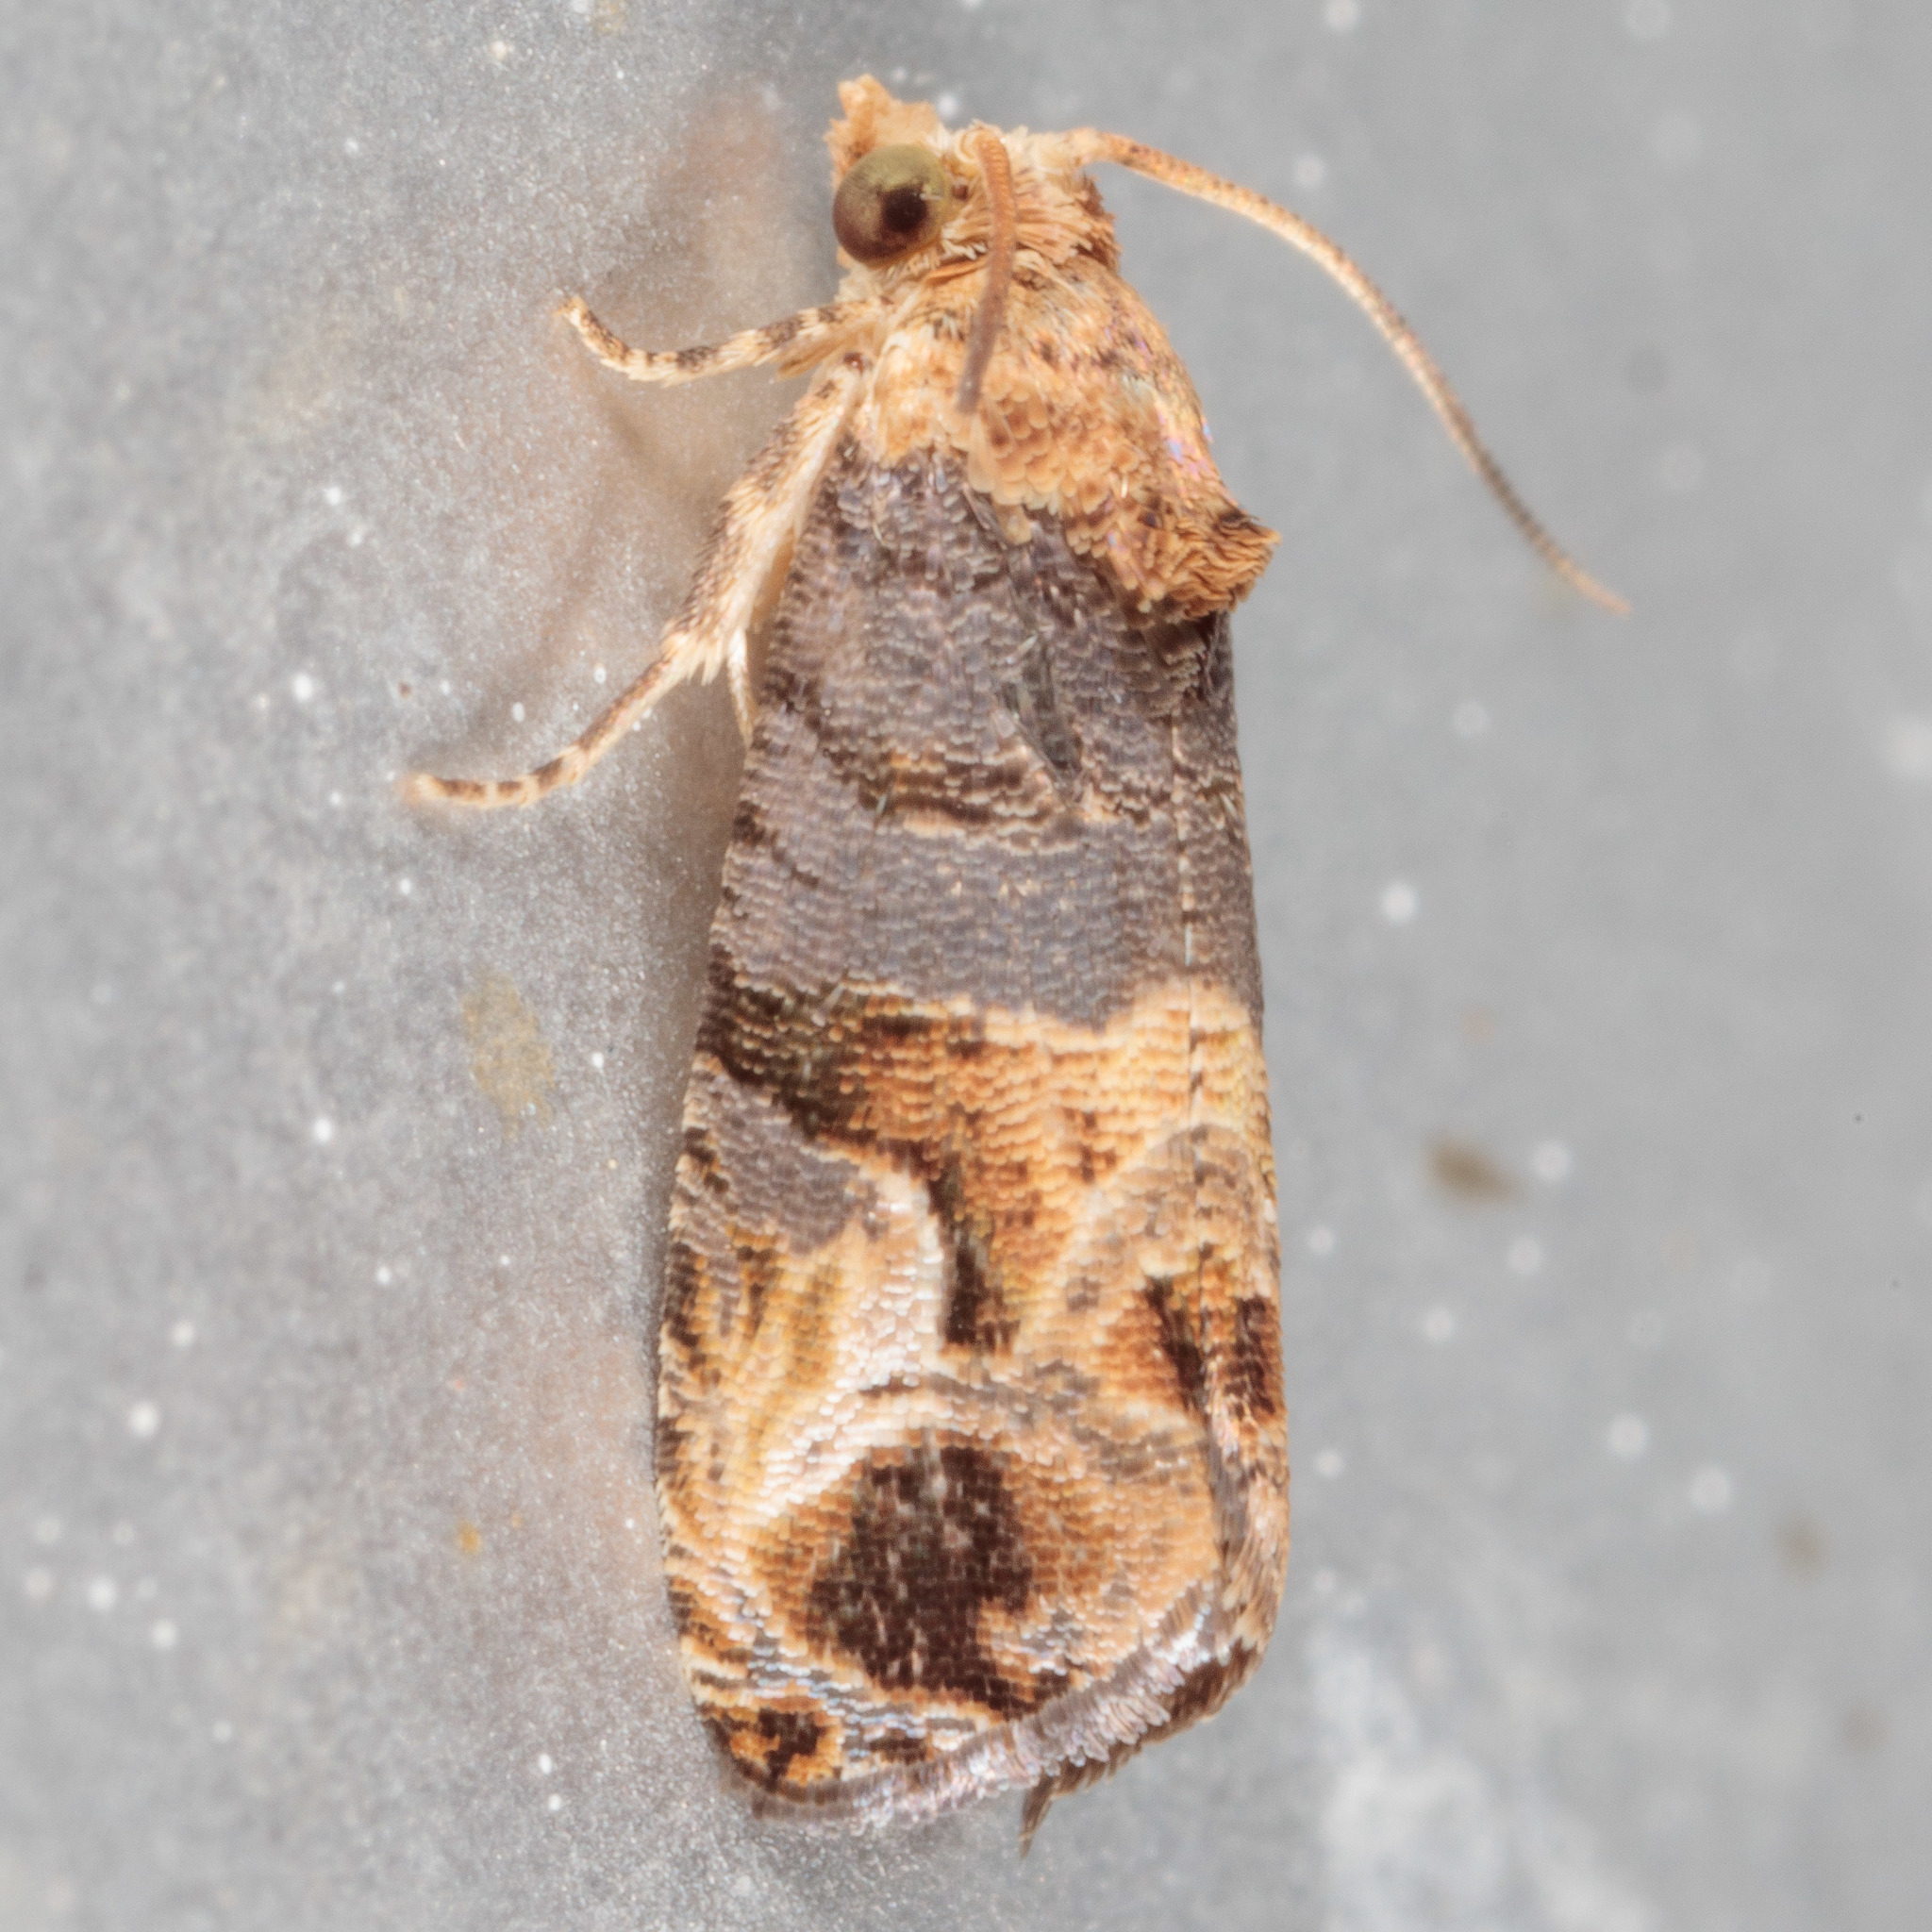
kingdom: Animalia
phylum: Arthropoda
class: Insecta
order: Lepidoptera
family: Tortricidae
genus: Paralobesia
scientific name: Paralobesia viteana
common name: Grape berry moth
